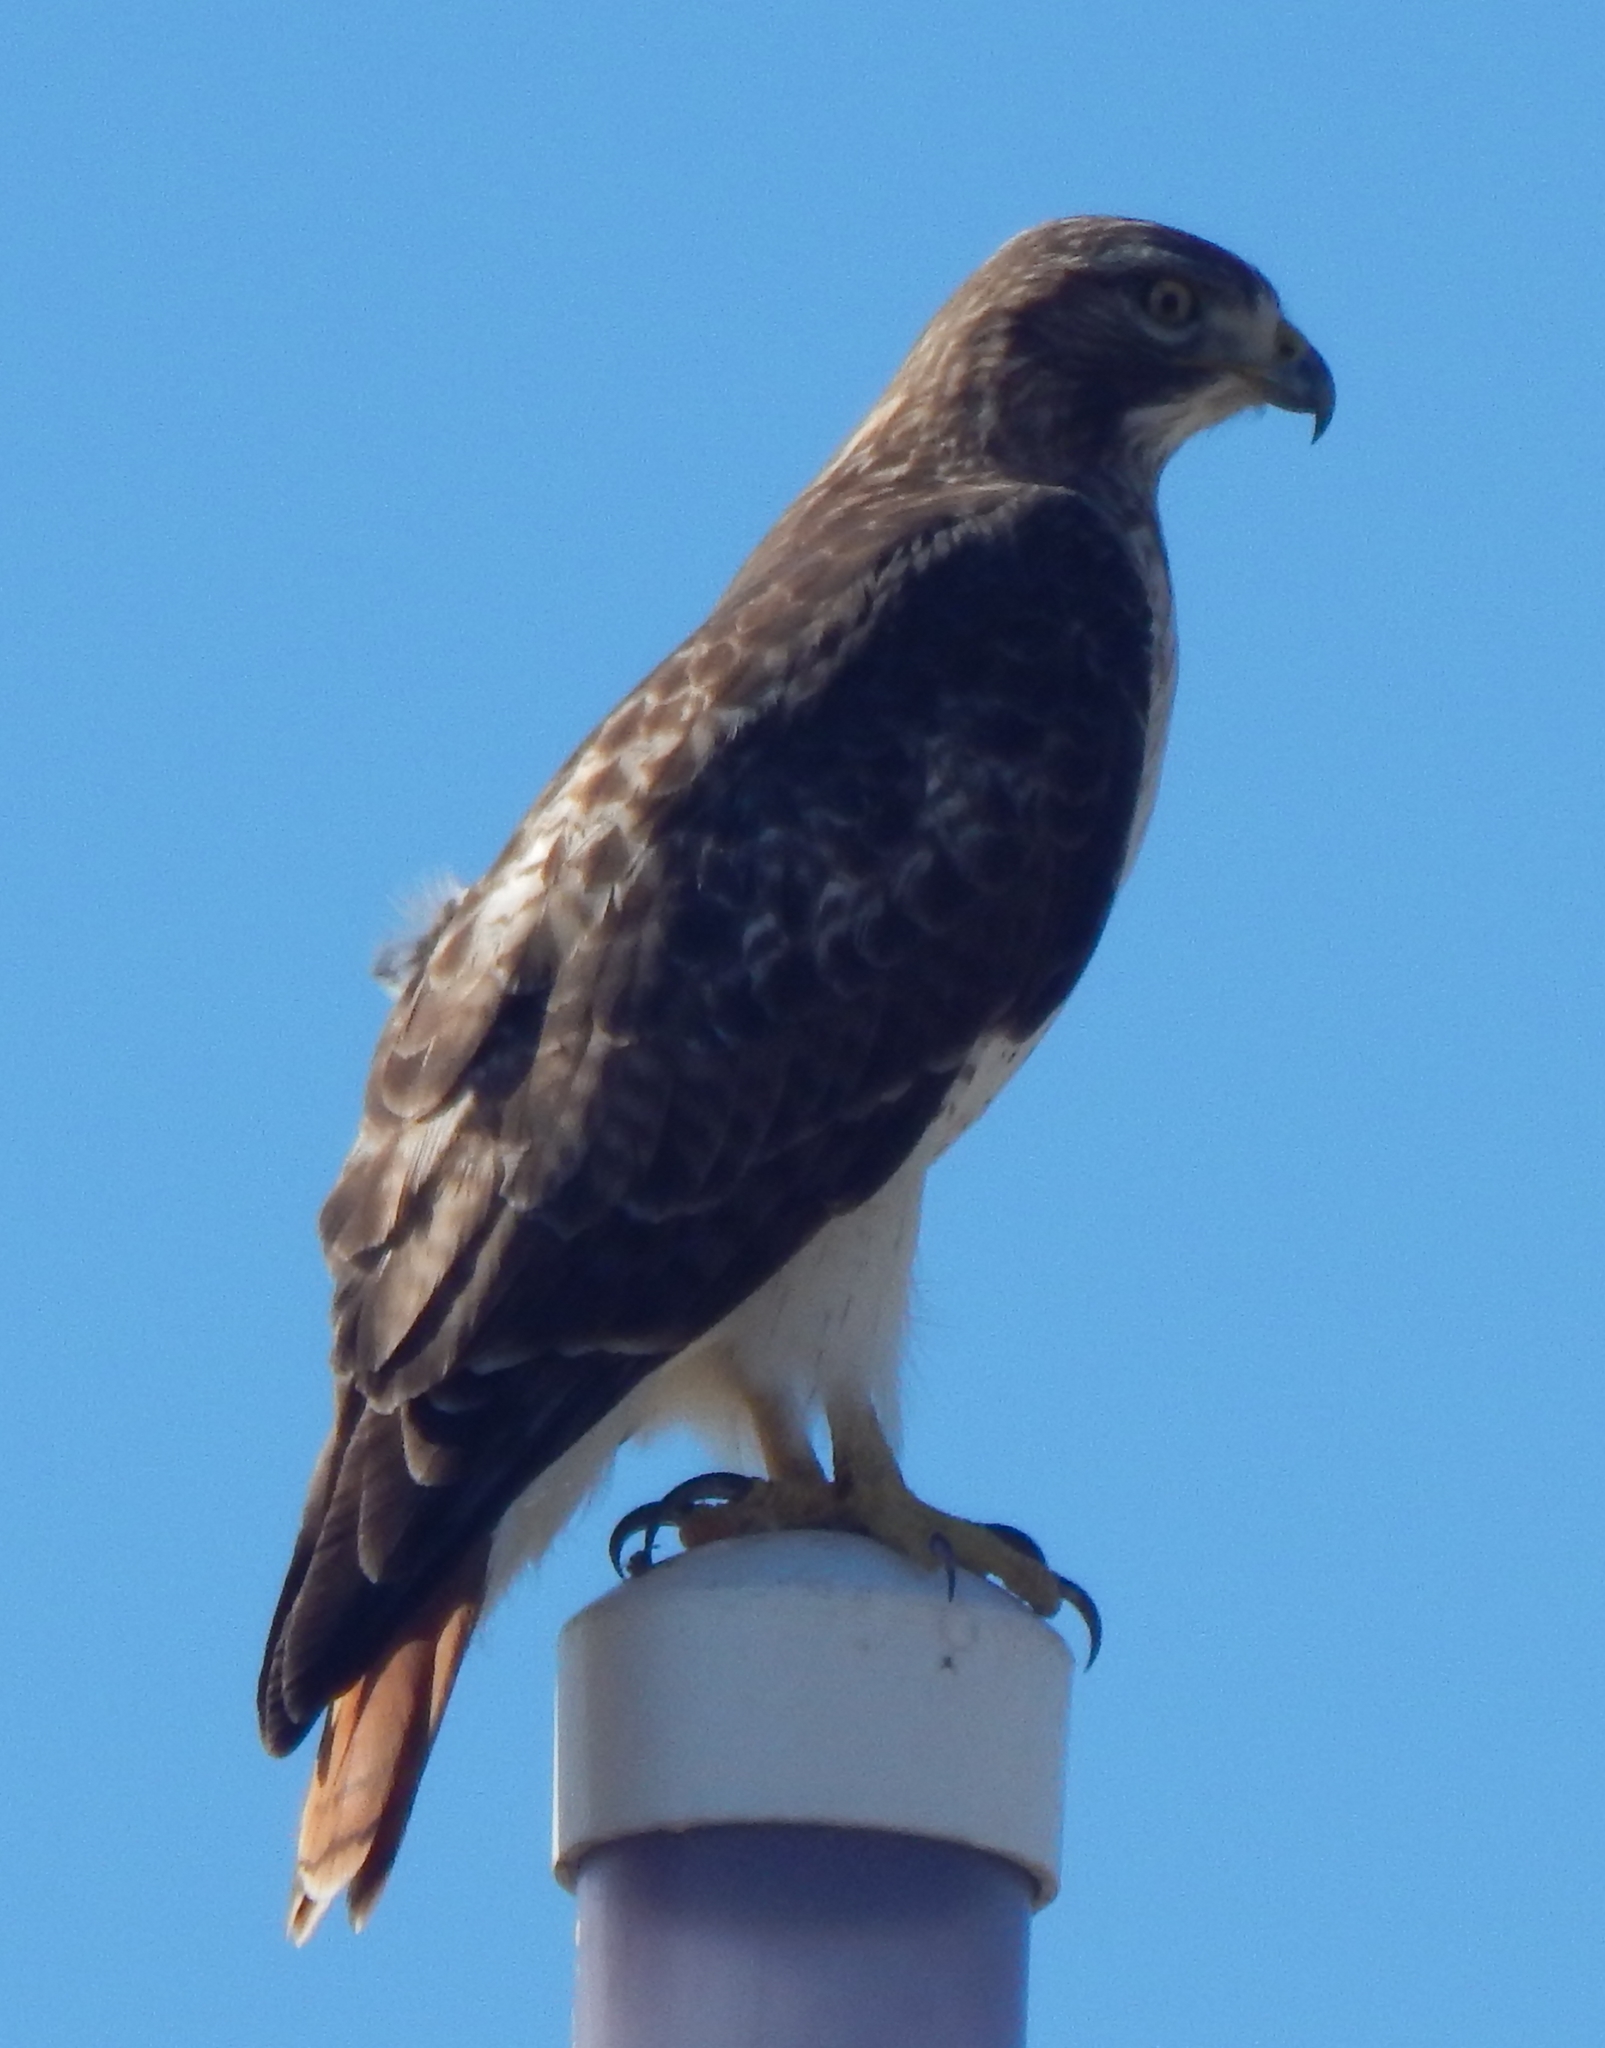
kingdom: Animalia
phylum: Chordata
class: Aves
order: Accipitriformes
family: Accipitridae
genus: Buteo
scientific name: Buteo jamaicensis
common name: Red-tailed hawk
